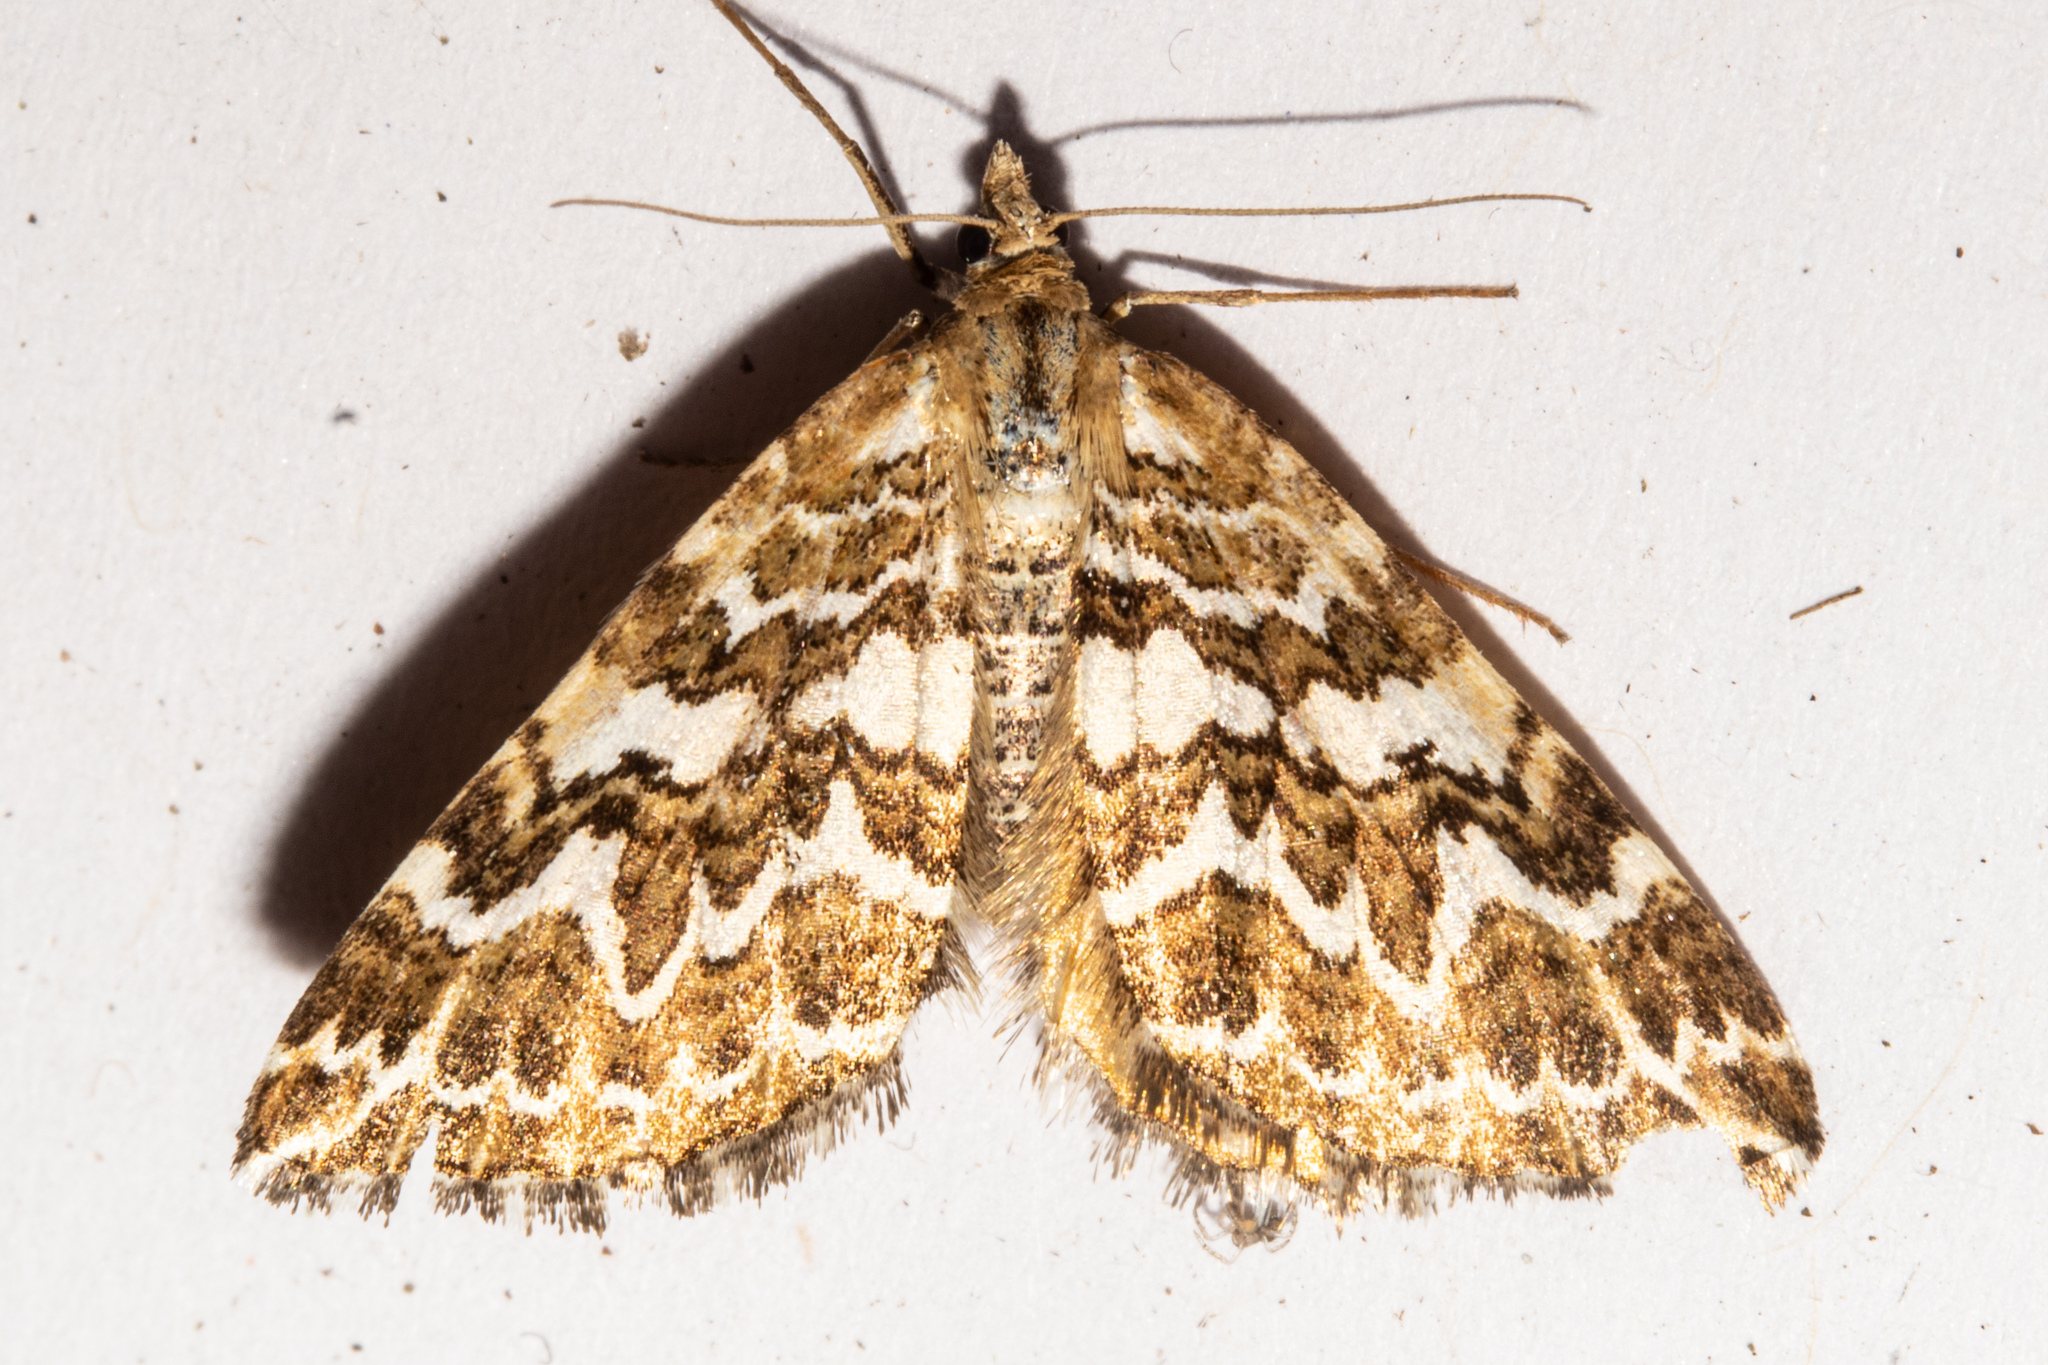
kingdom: Animalia
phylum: Arthropoda
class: Insecta
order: Lepidoptera
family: Geometridae
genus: Asaphodes
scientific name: Asaphodes clarata
